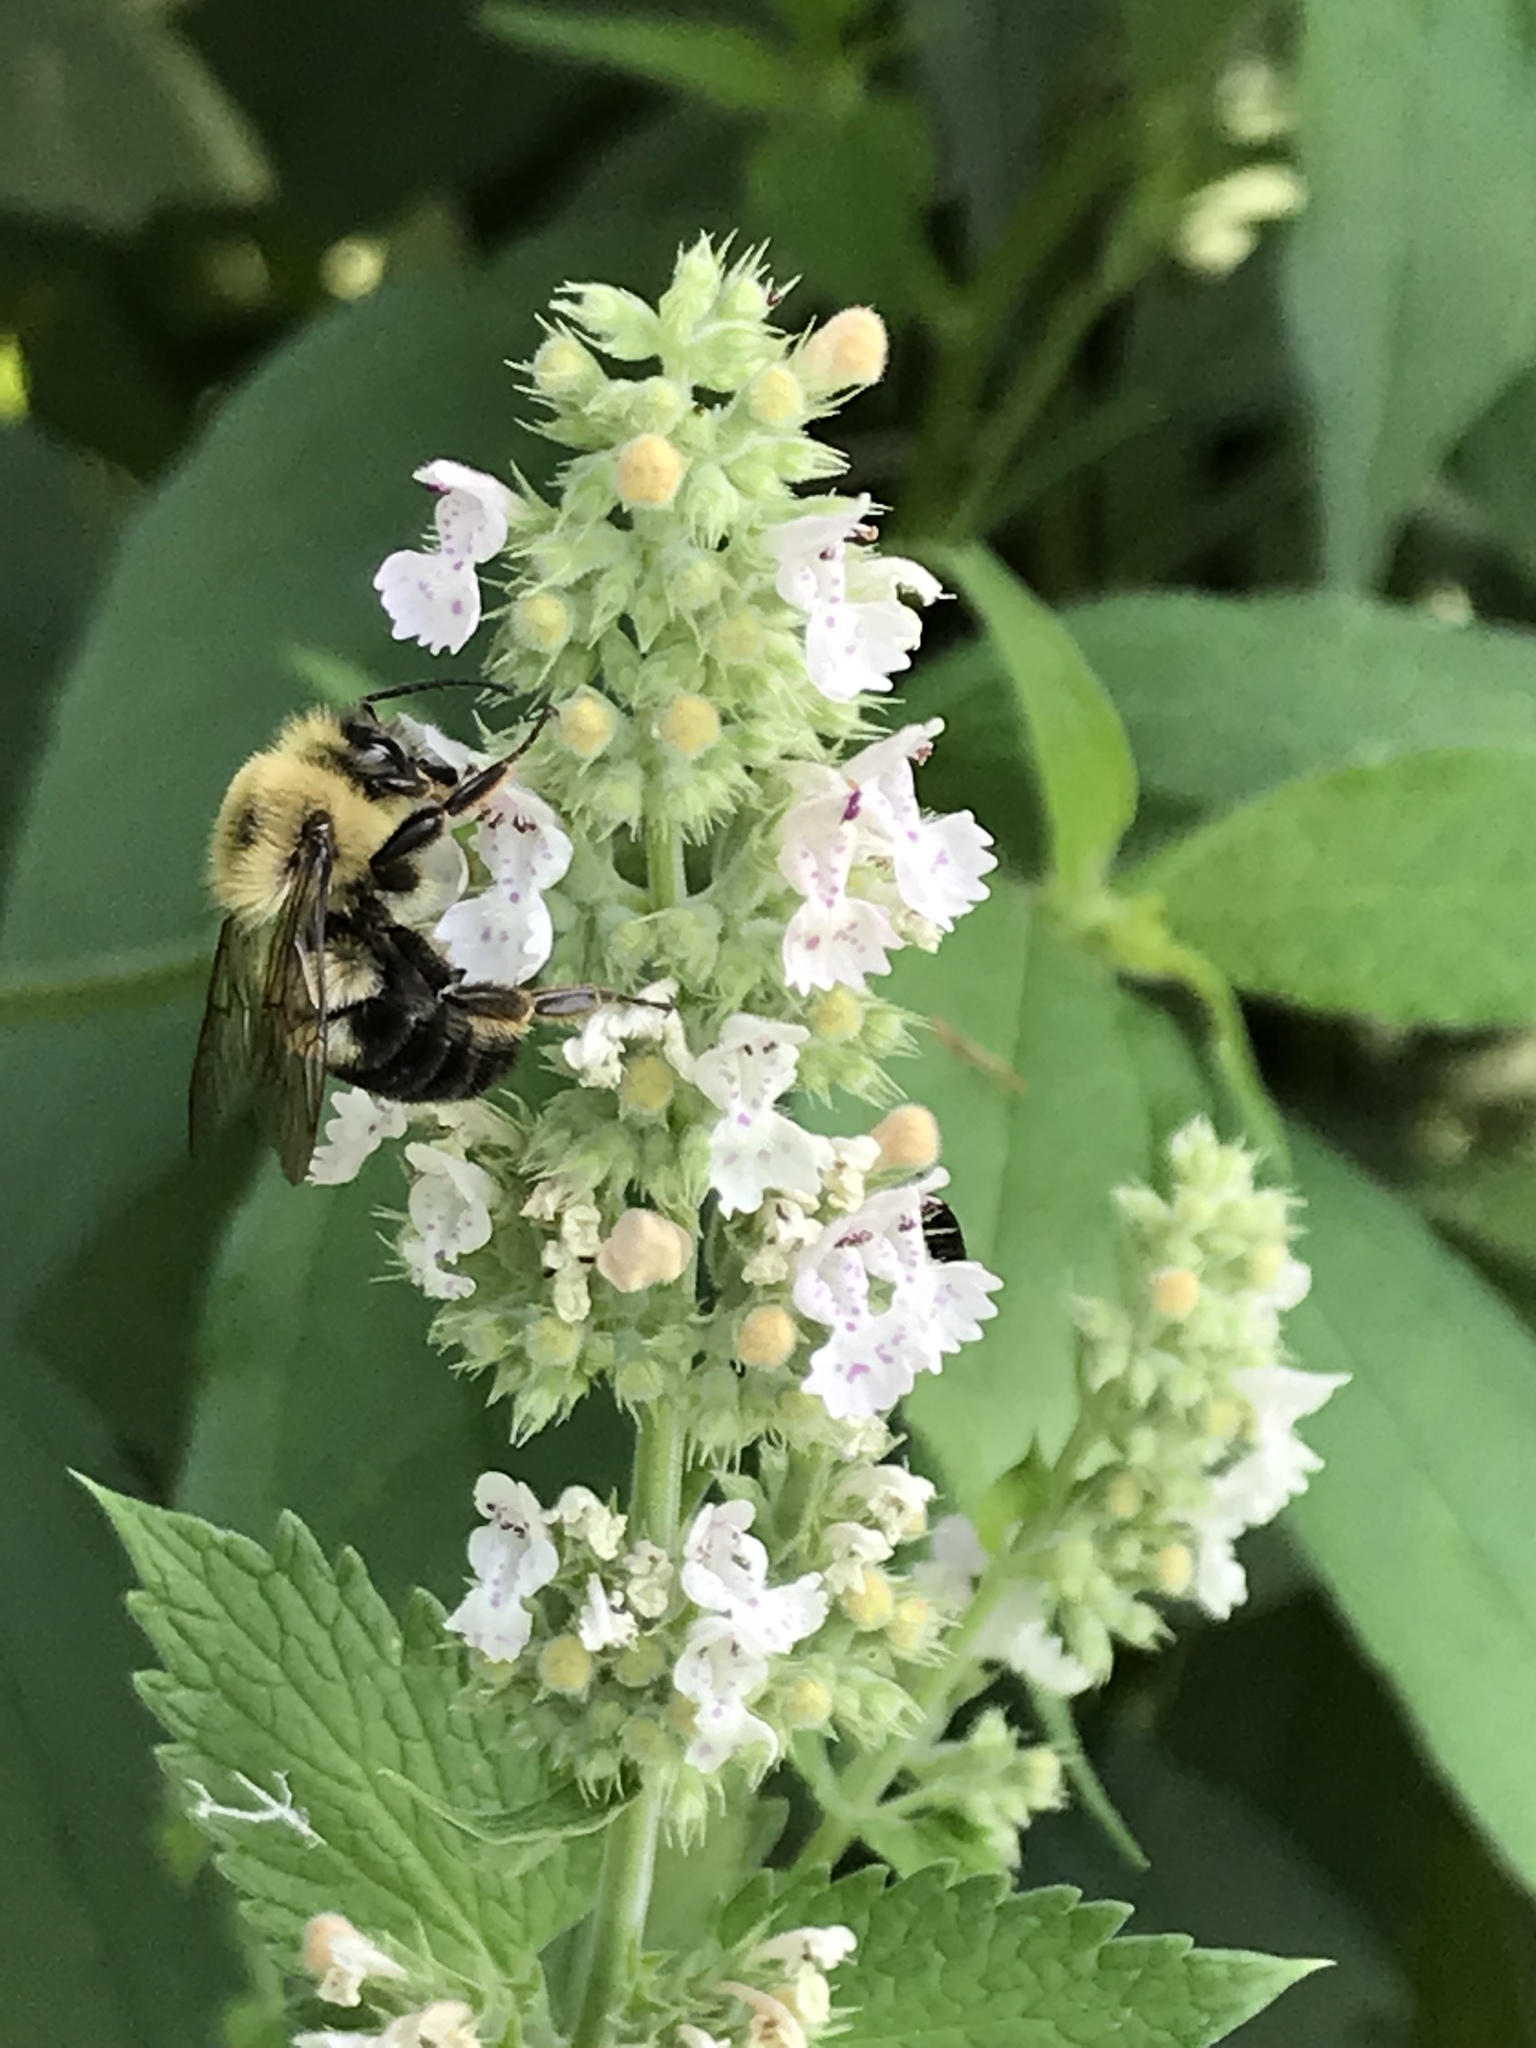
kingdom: Animalia
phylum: Arthropoda
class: Insecta
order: Hymenoptera
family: Apidae
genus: Bombus
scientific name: Bombus bimaculatus
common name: Two-spotted bumble bee
